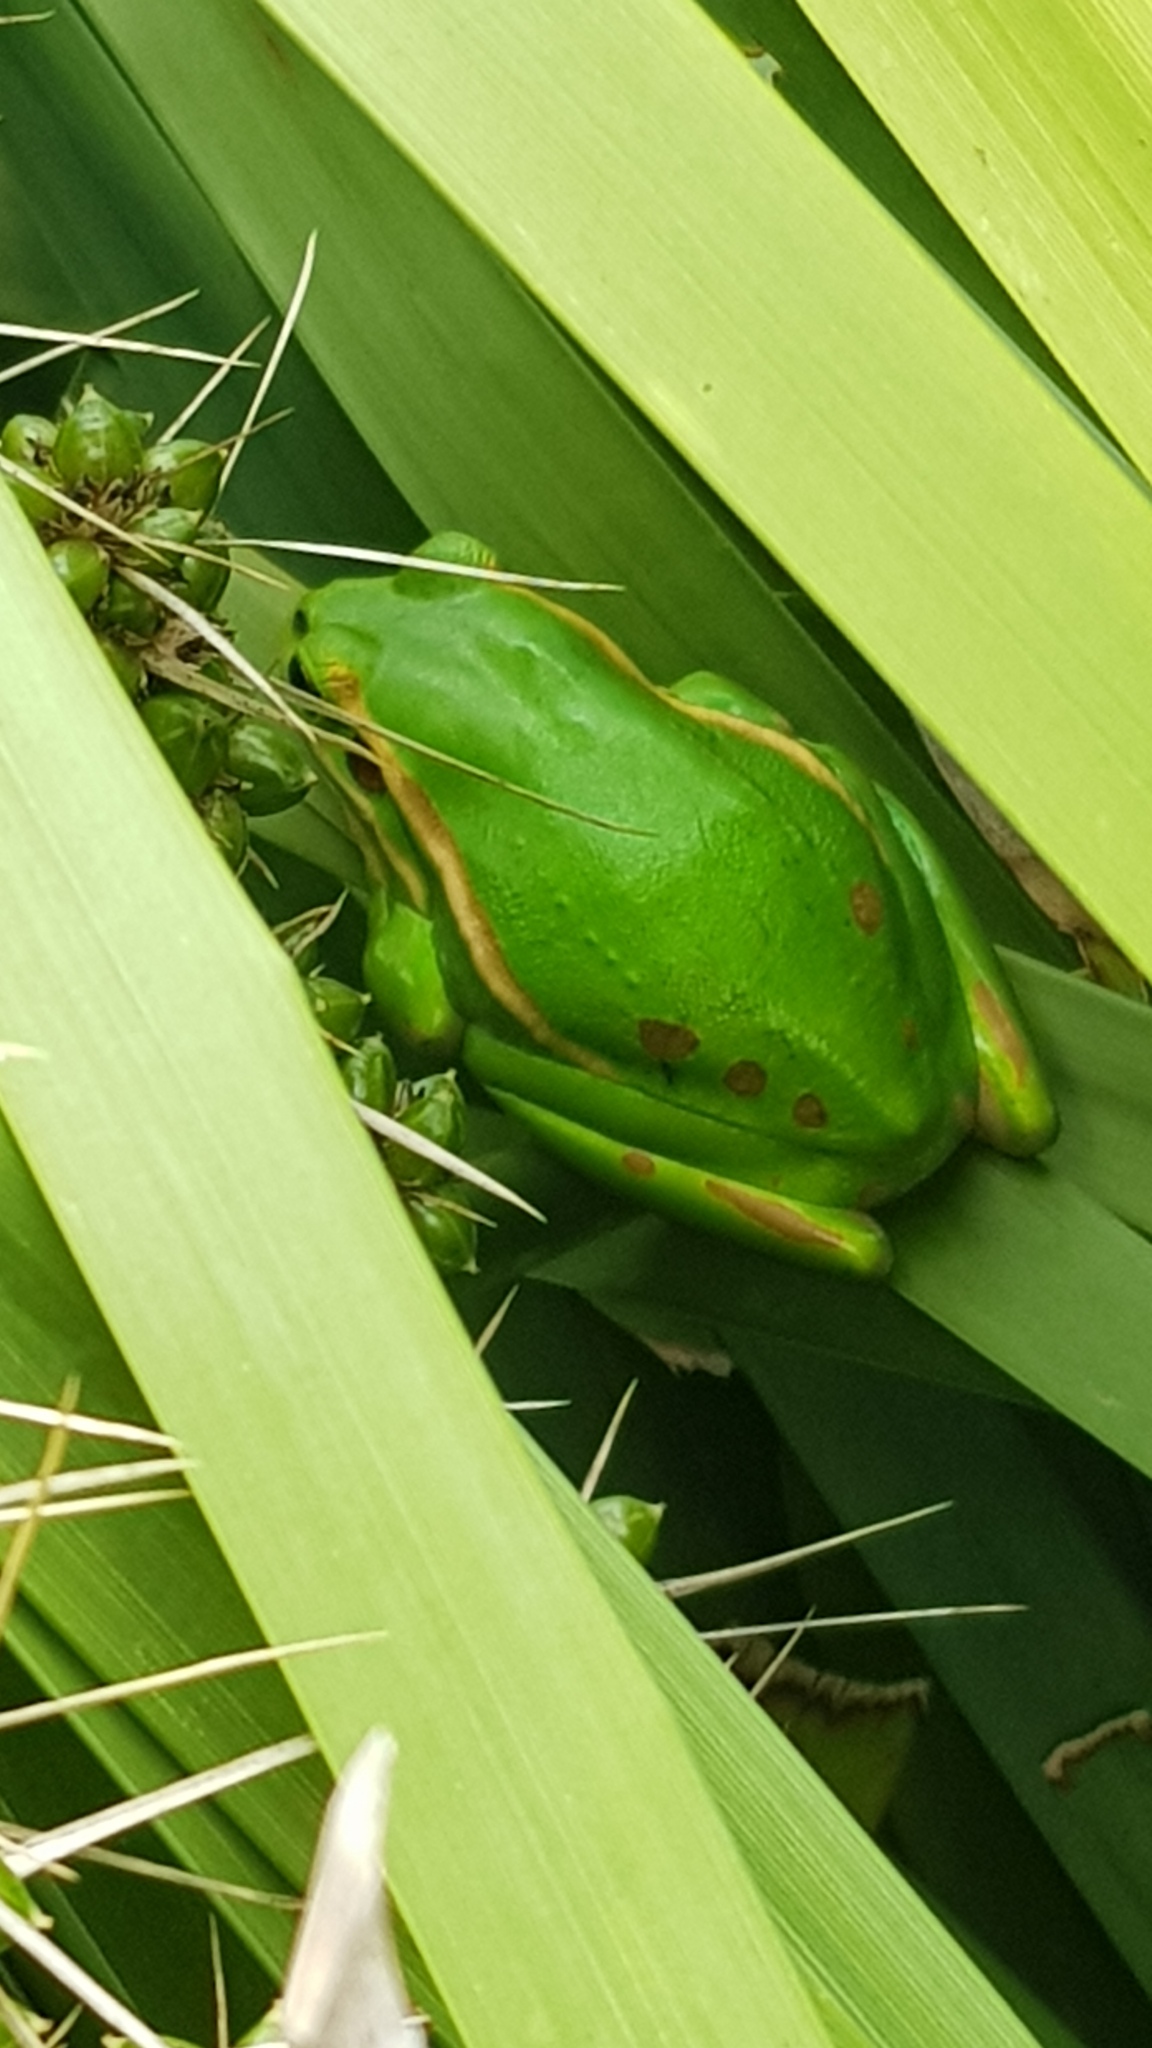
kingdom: Animalia
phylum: Chordata
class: Amphibia
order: Anura
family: Pelodryadidae
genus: Ranoidea
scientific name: Ranoidea aurea
